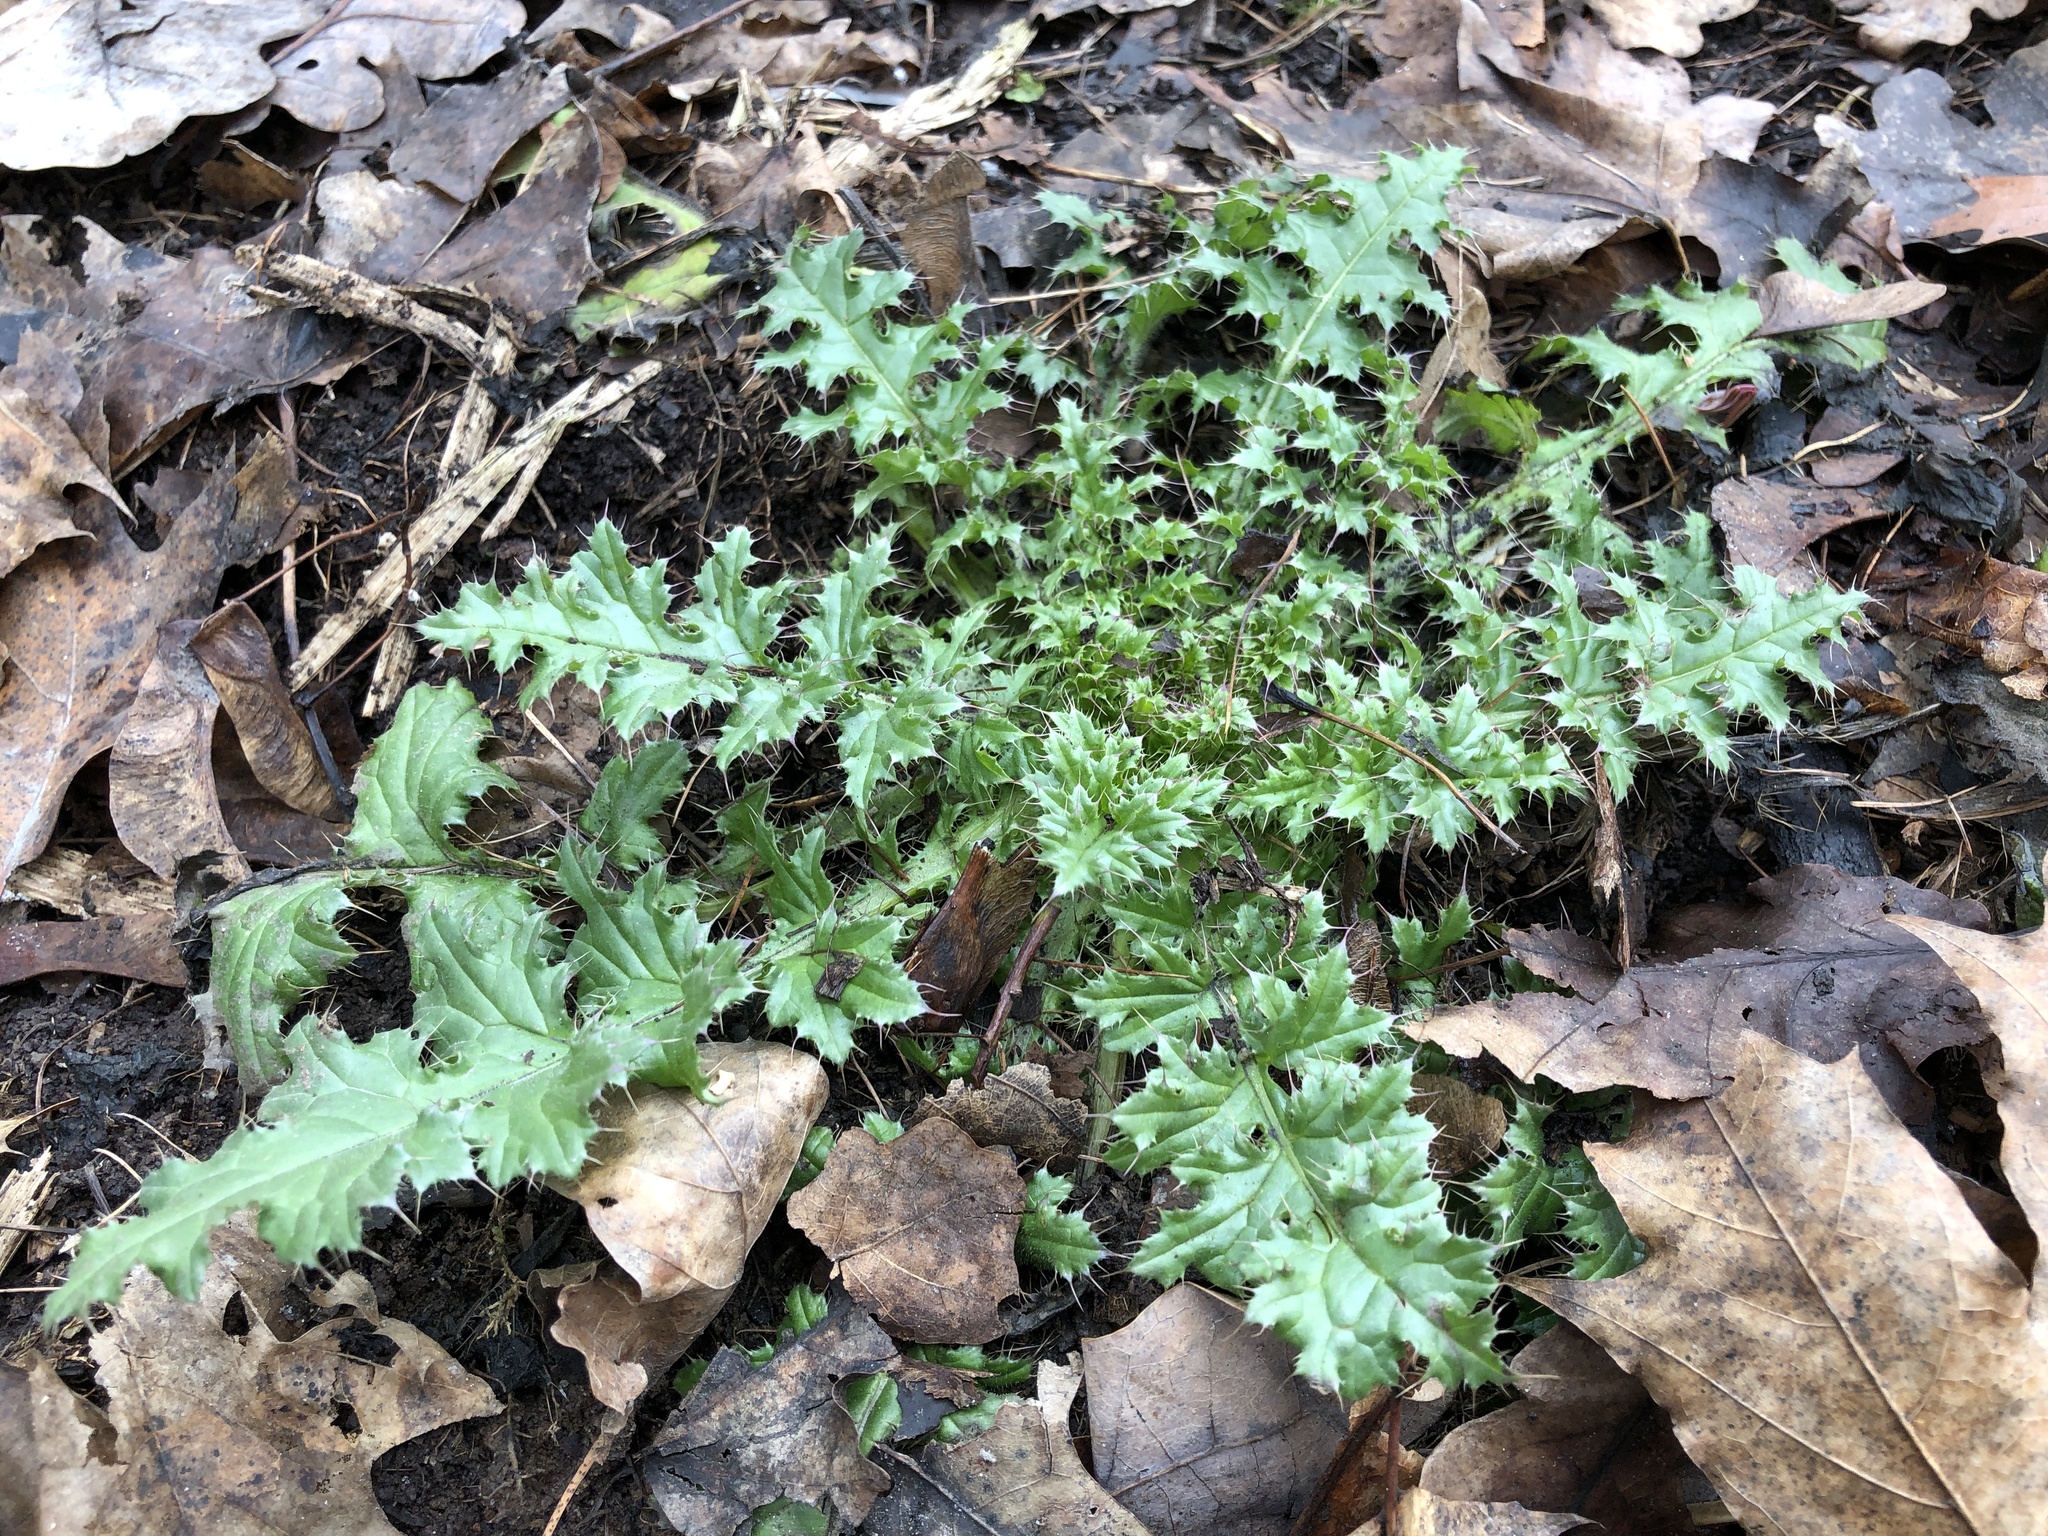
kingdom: Plantae
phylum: Tracheophyta
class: Magnoliopsida
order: Asterales
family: Asteraceae
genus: Carduus
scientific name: Carduus acanthoides
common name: Plumeless thistle
